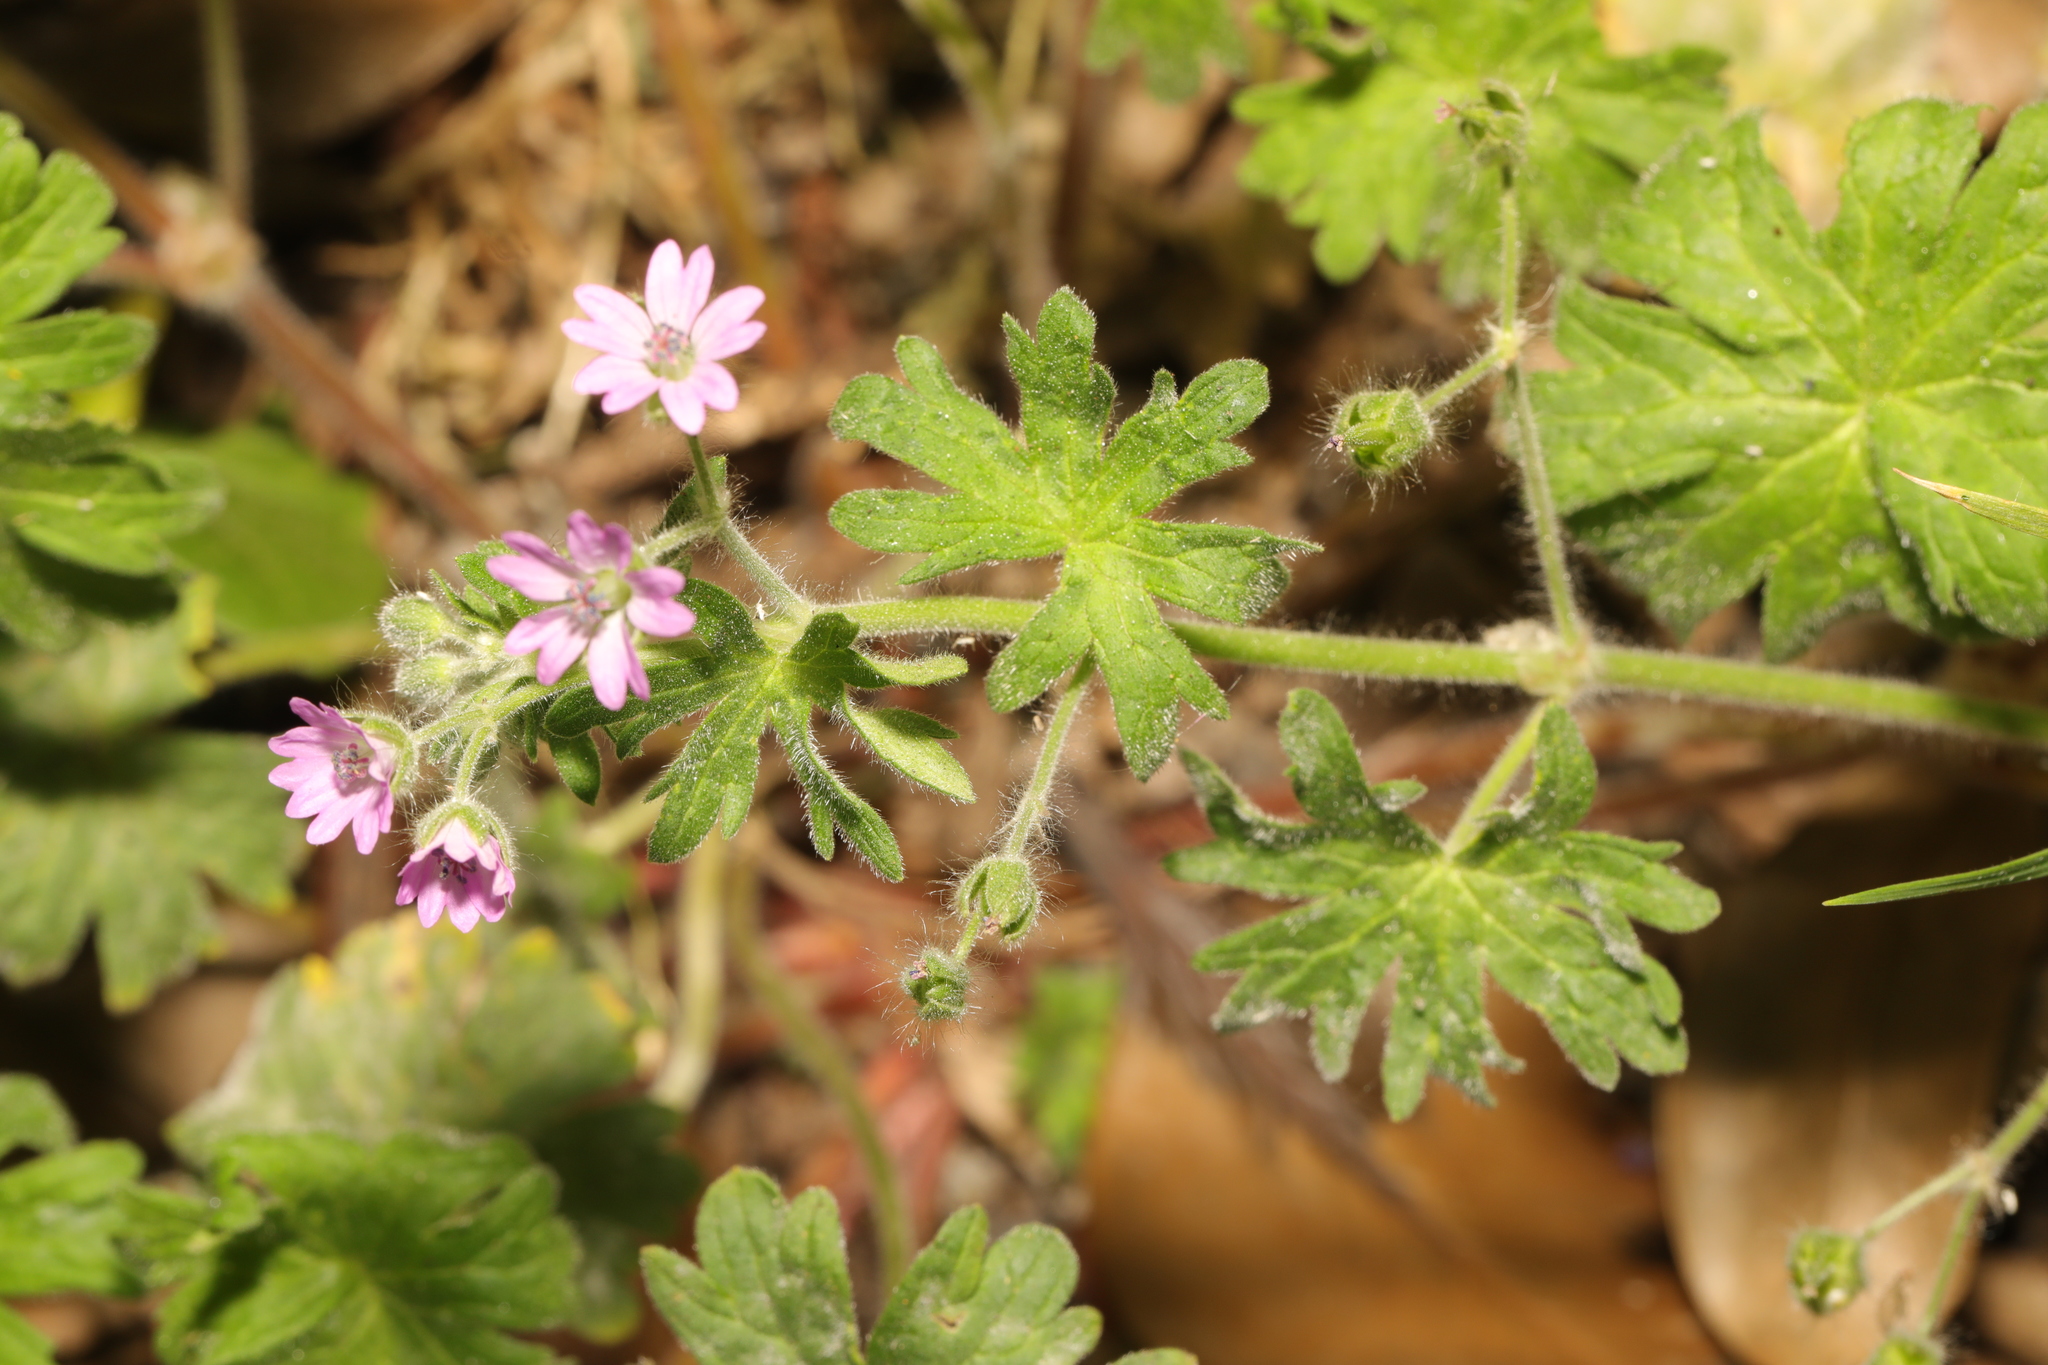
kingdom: Plantae
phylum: Tracheophyta
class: Magnoliopsida
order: Geraniales
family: Geraniaceae
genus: Geranium
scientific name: Geranium molle
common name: Dove's-foot crane's-bill
